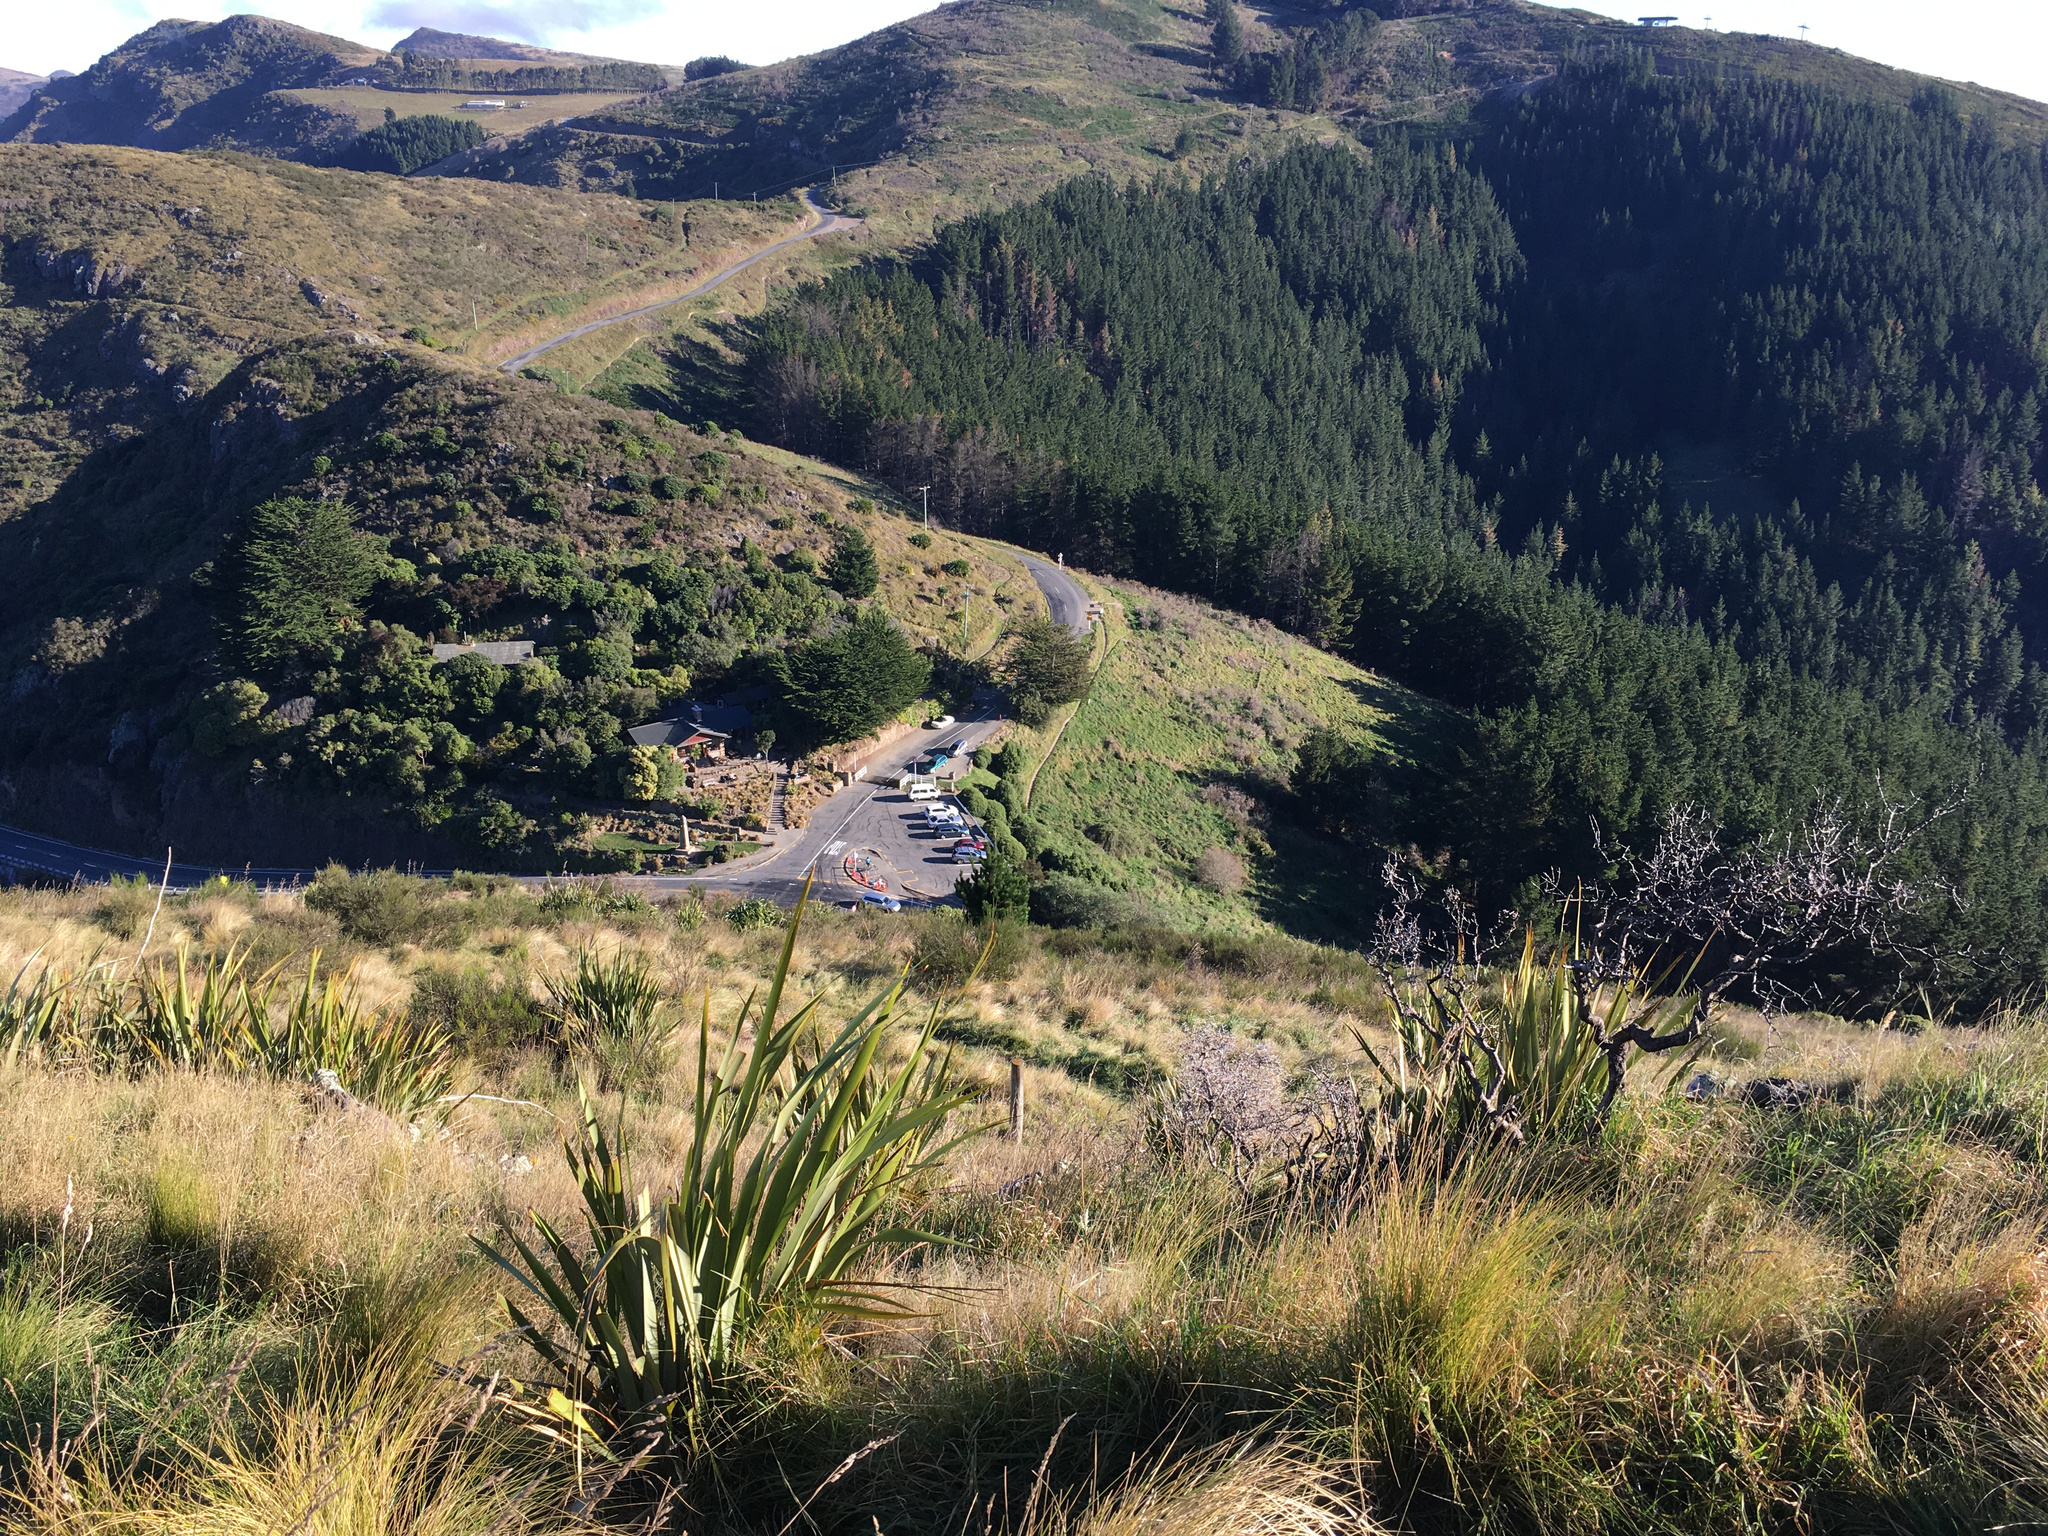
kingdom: Plantae
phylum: Tracheophyta
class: Liliopsida
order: Asparagales
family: Asphodelaceae
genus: Phormium
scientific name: Phormium tenax
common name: New zealand flax
